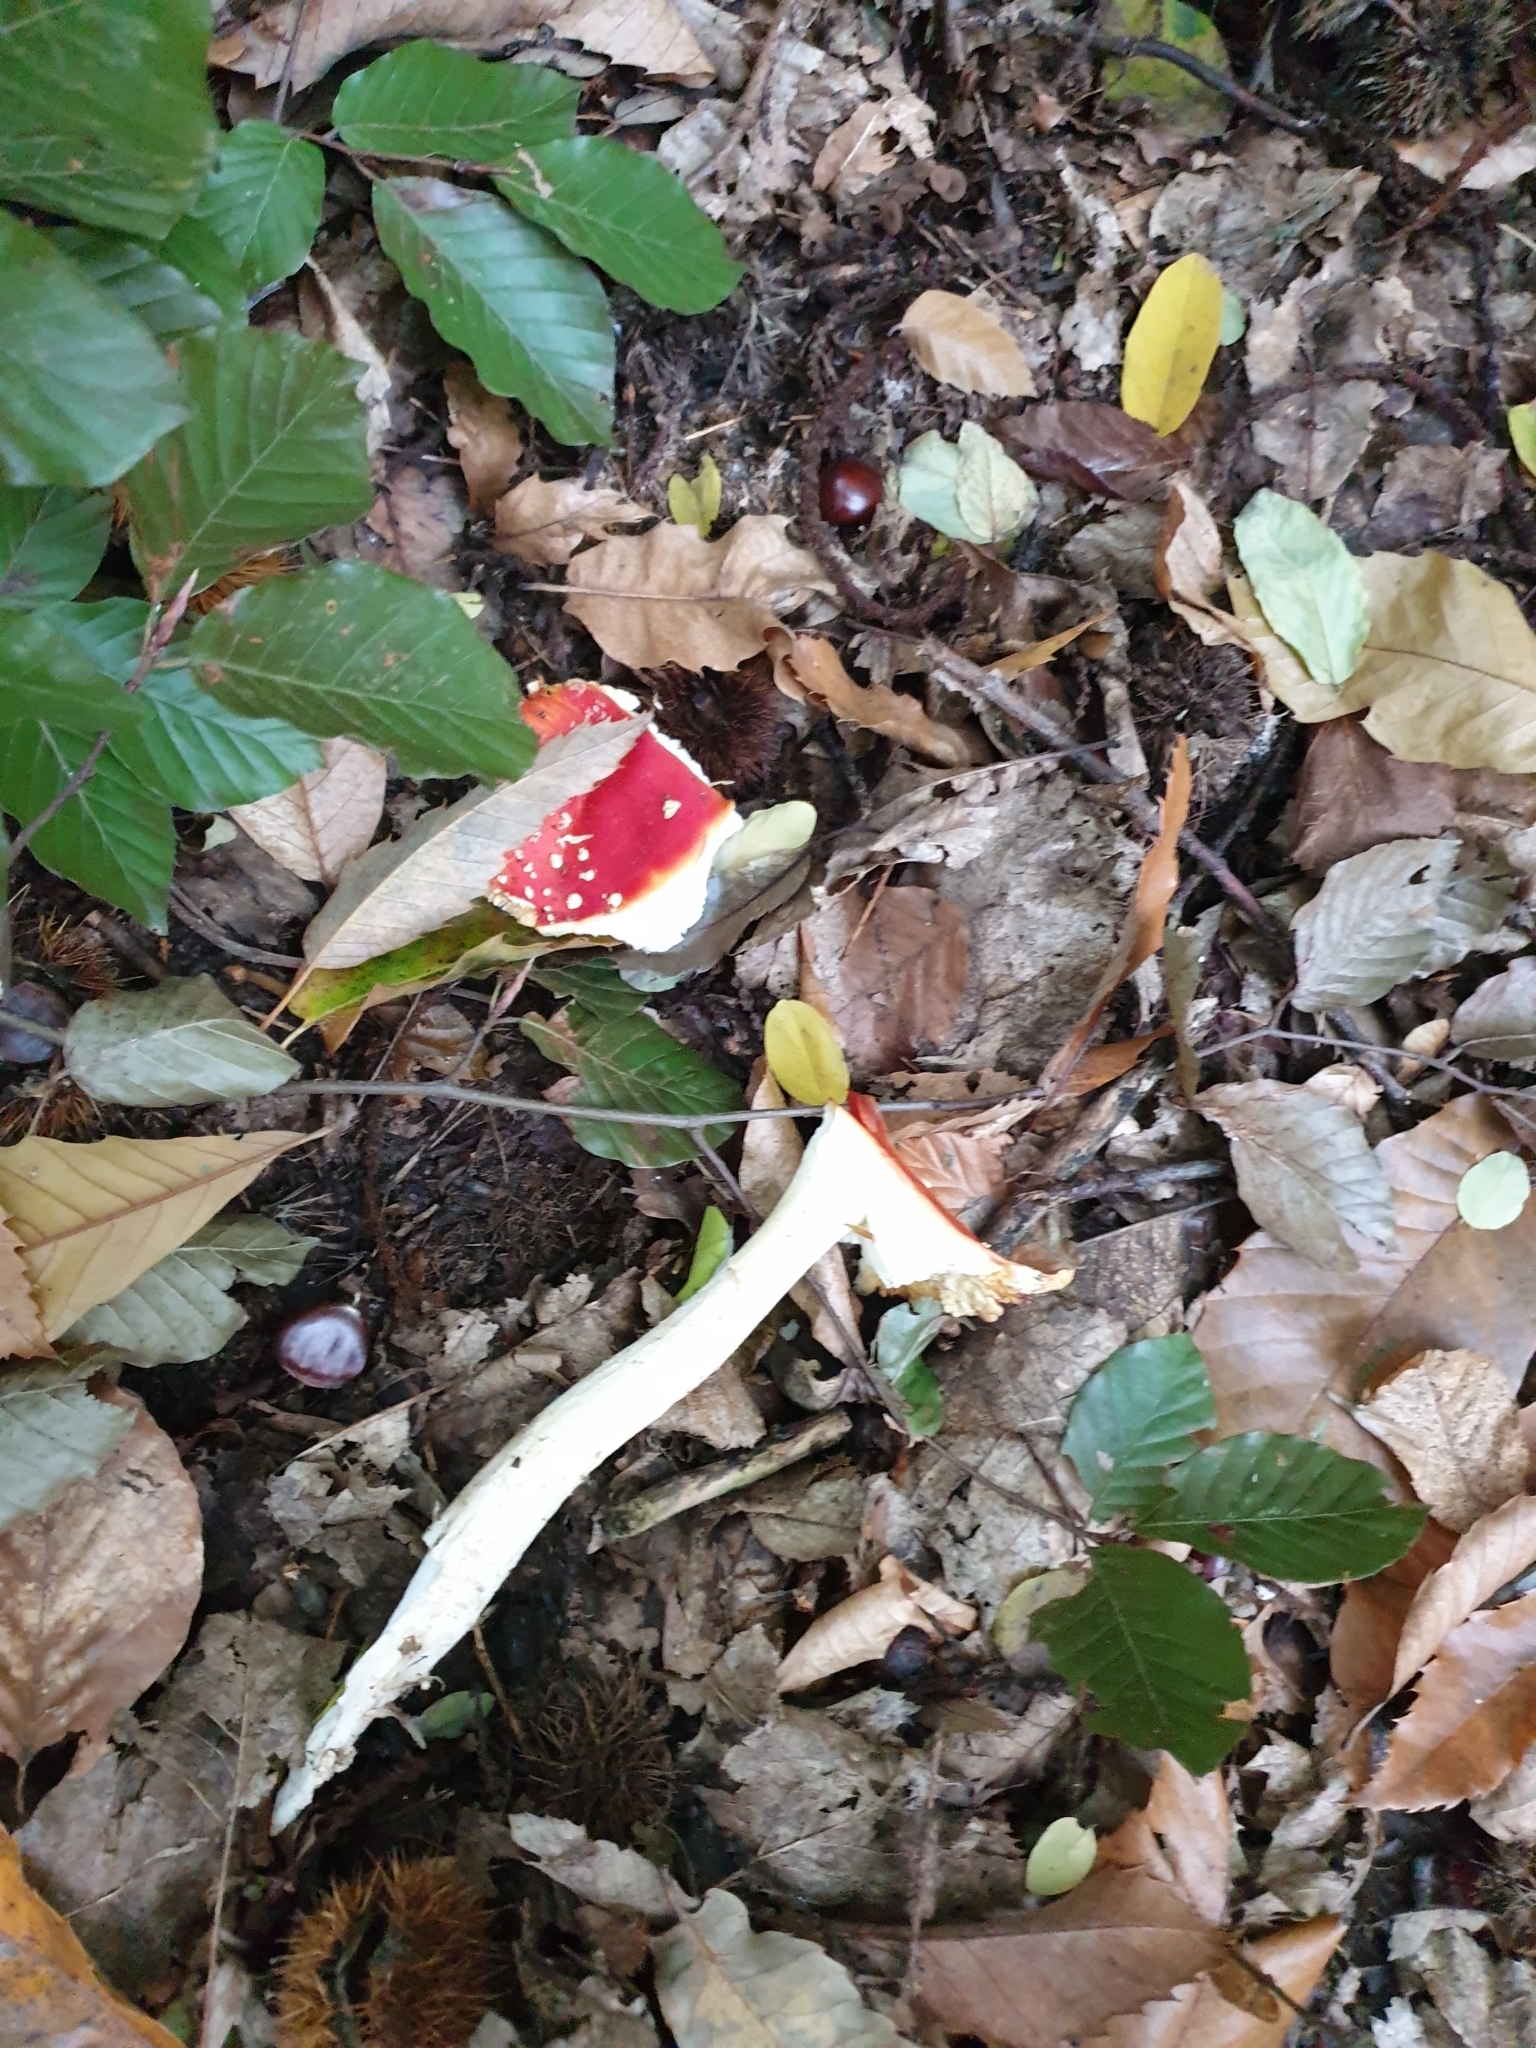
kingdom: Fungi
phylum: Basidiomycota
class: Agaricomycetes
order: Agaricales
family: Amanitaceae
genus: Amanita
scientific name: Amanita muscaria
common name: Fly agaric
